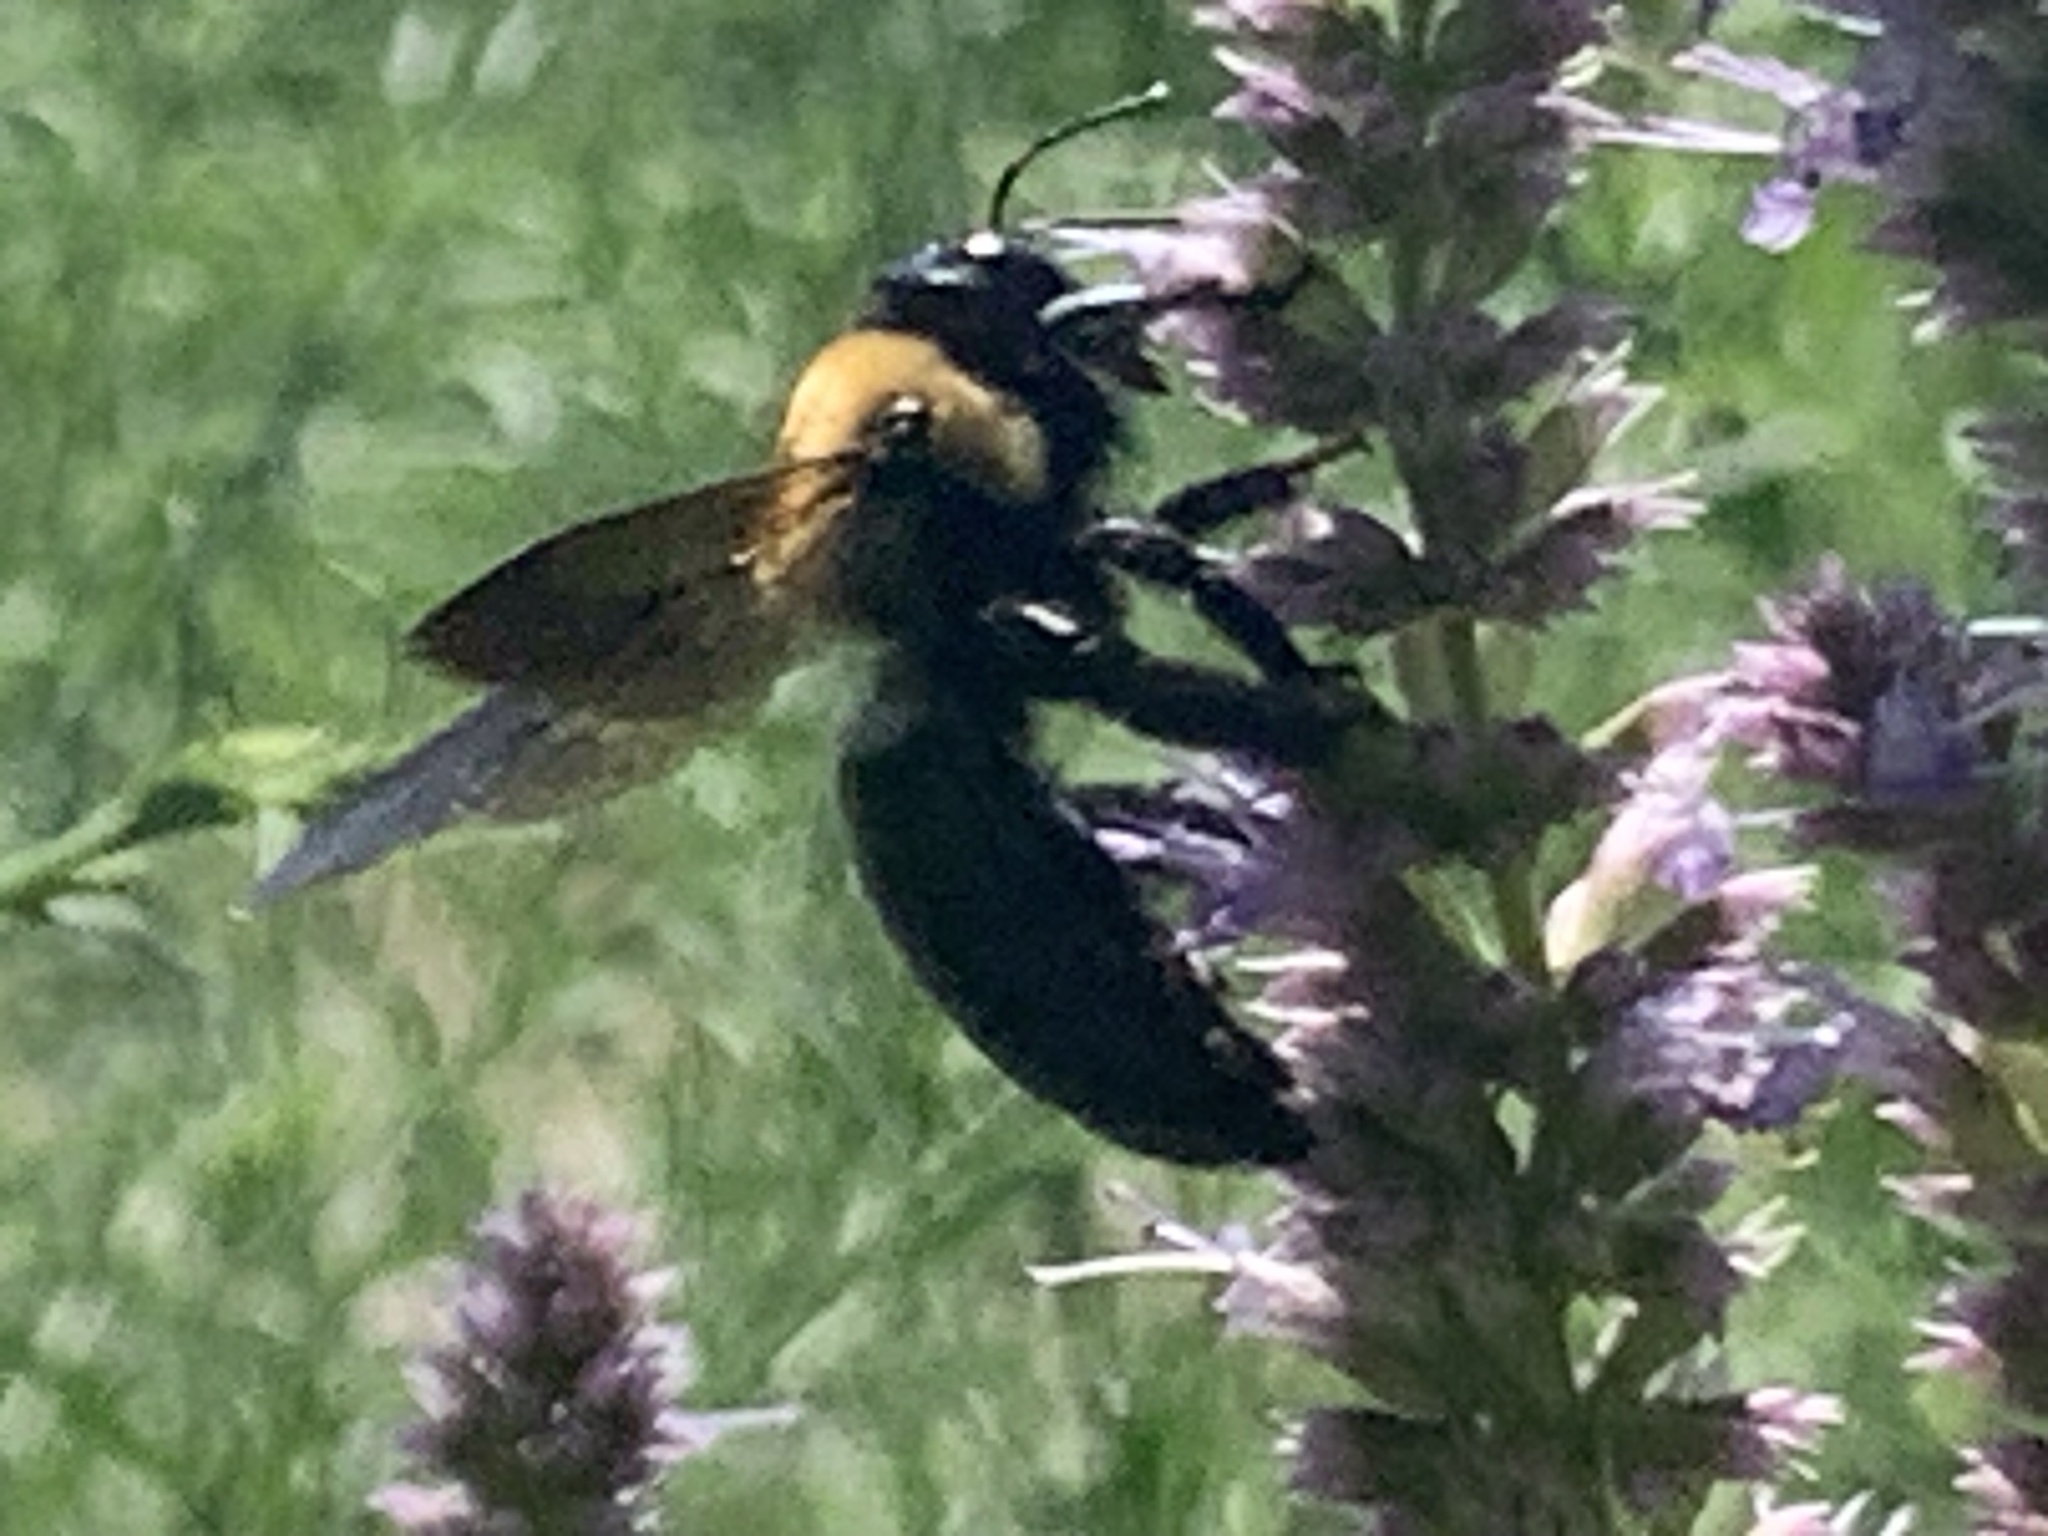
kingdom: Animalia
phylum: Arthropoda
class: Insecta
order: Hymenoptera
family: Apidae
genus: Xylocopa
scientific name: Xylocopa virginica
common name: Carpenter bee
